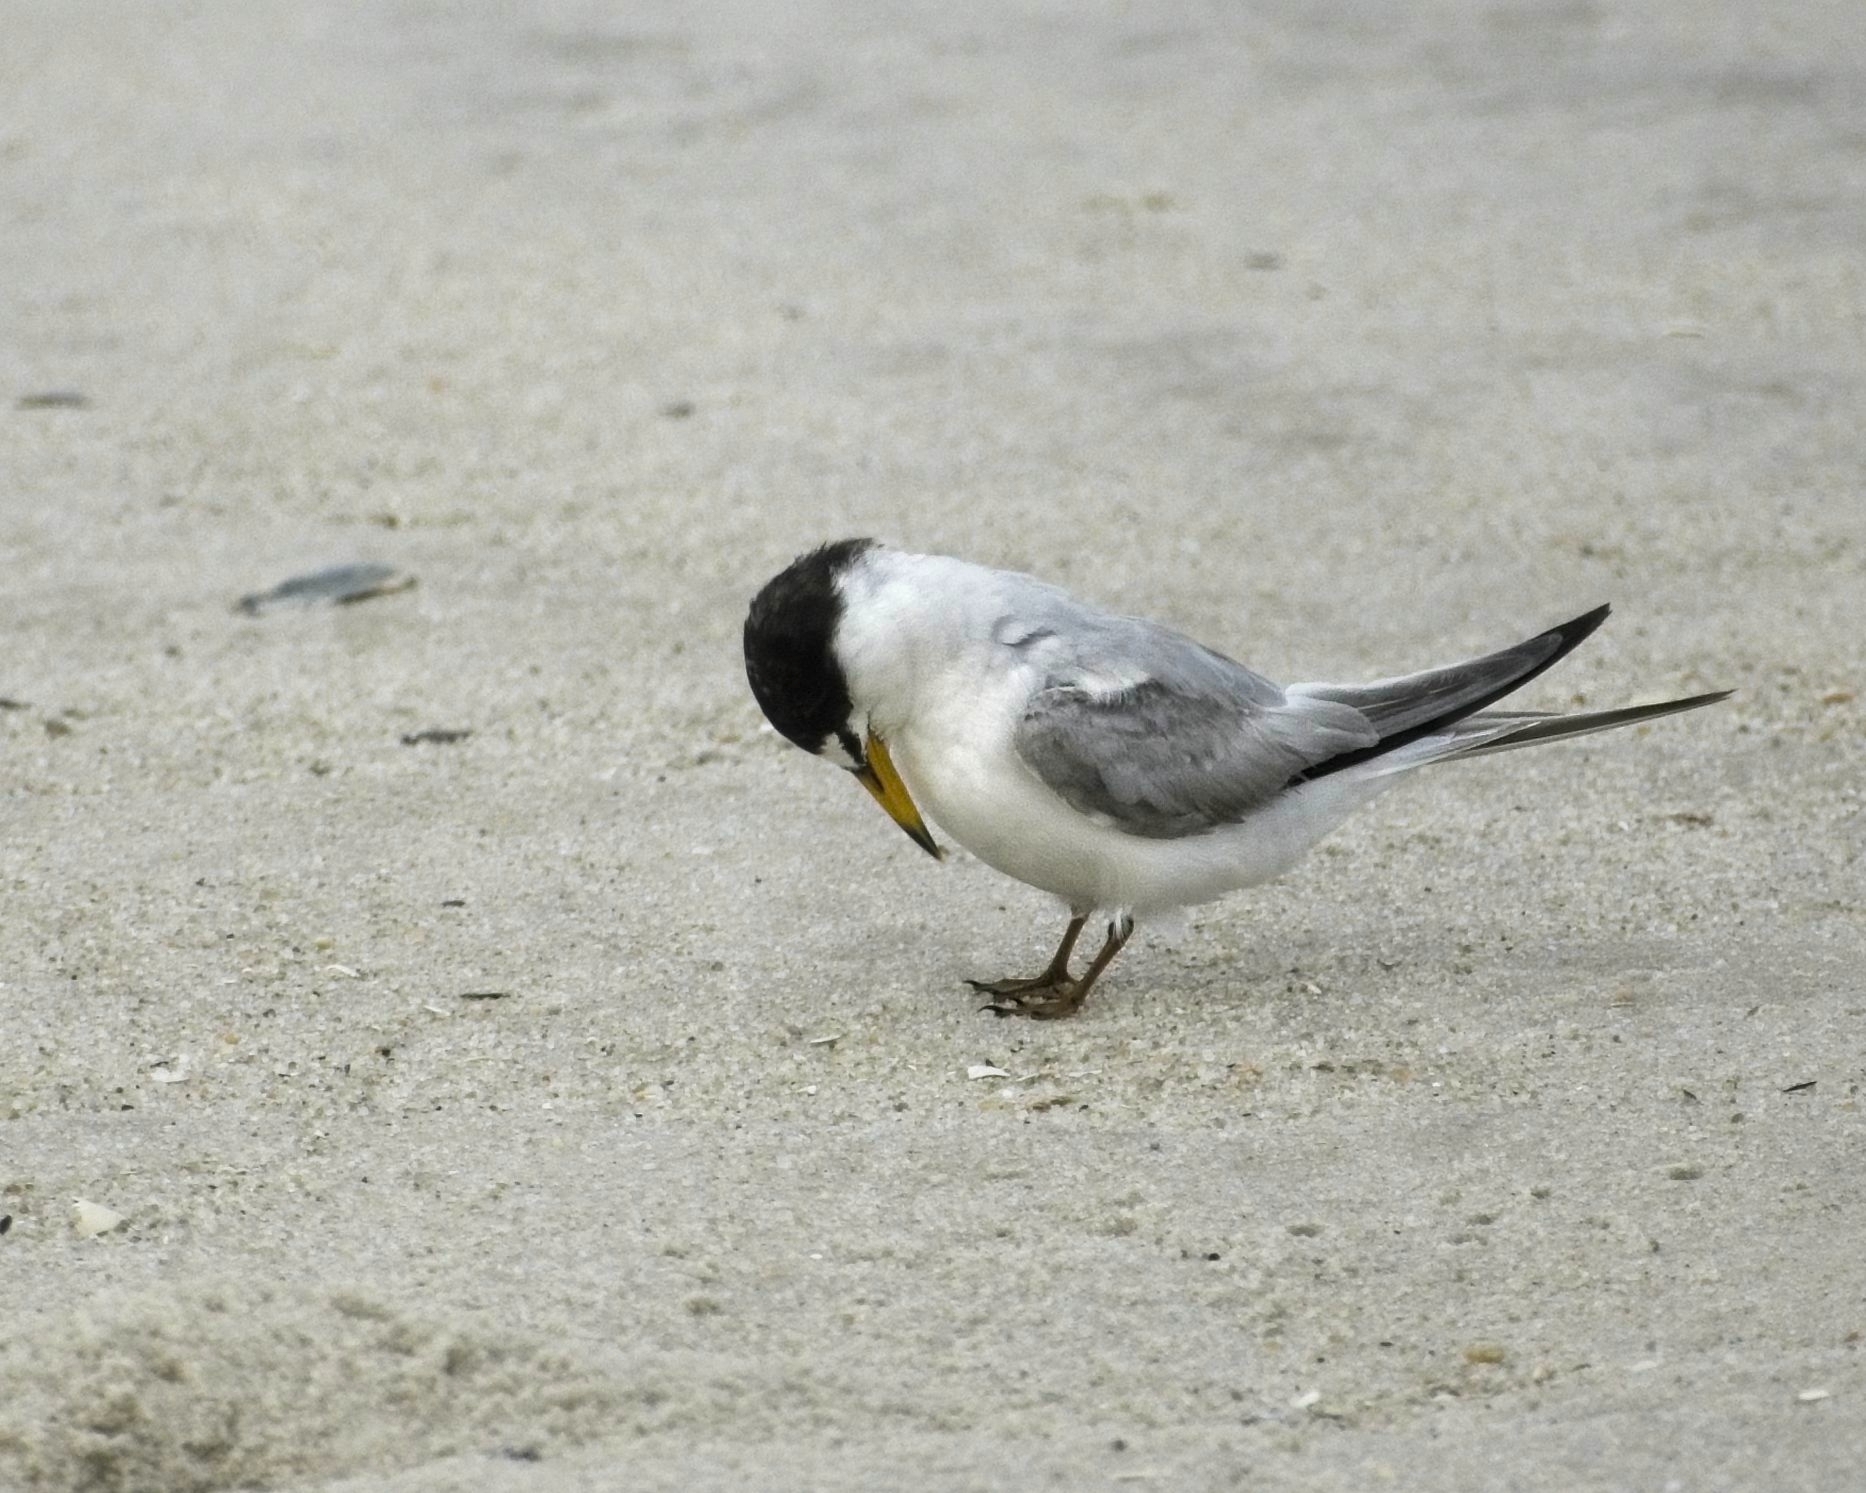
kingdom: Animalia
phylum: Chordata
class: Aves
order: Charadriiformes
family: Laridae
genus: Sternula
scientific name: Sternula antillarum
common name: Least tern
